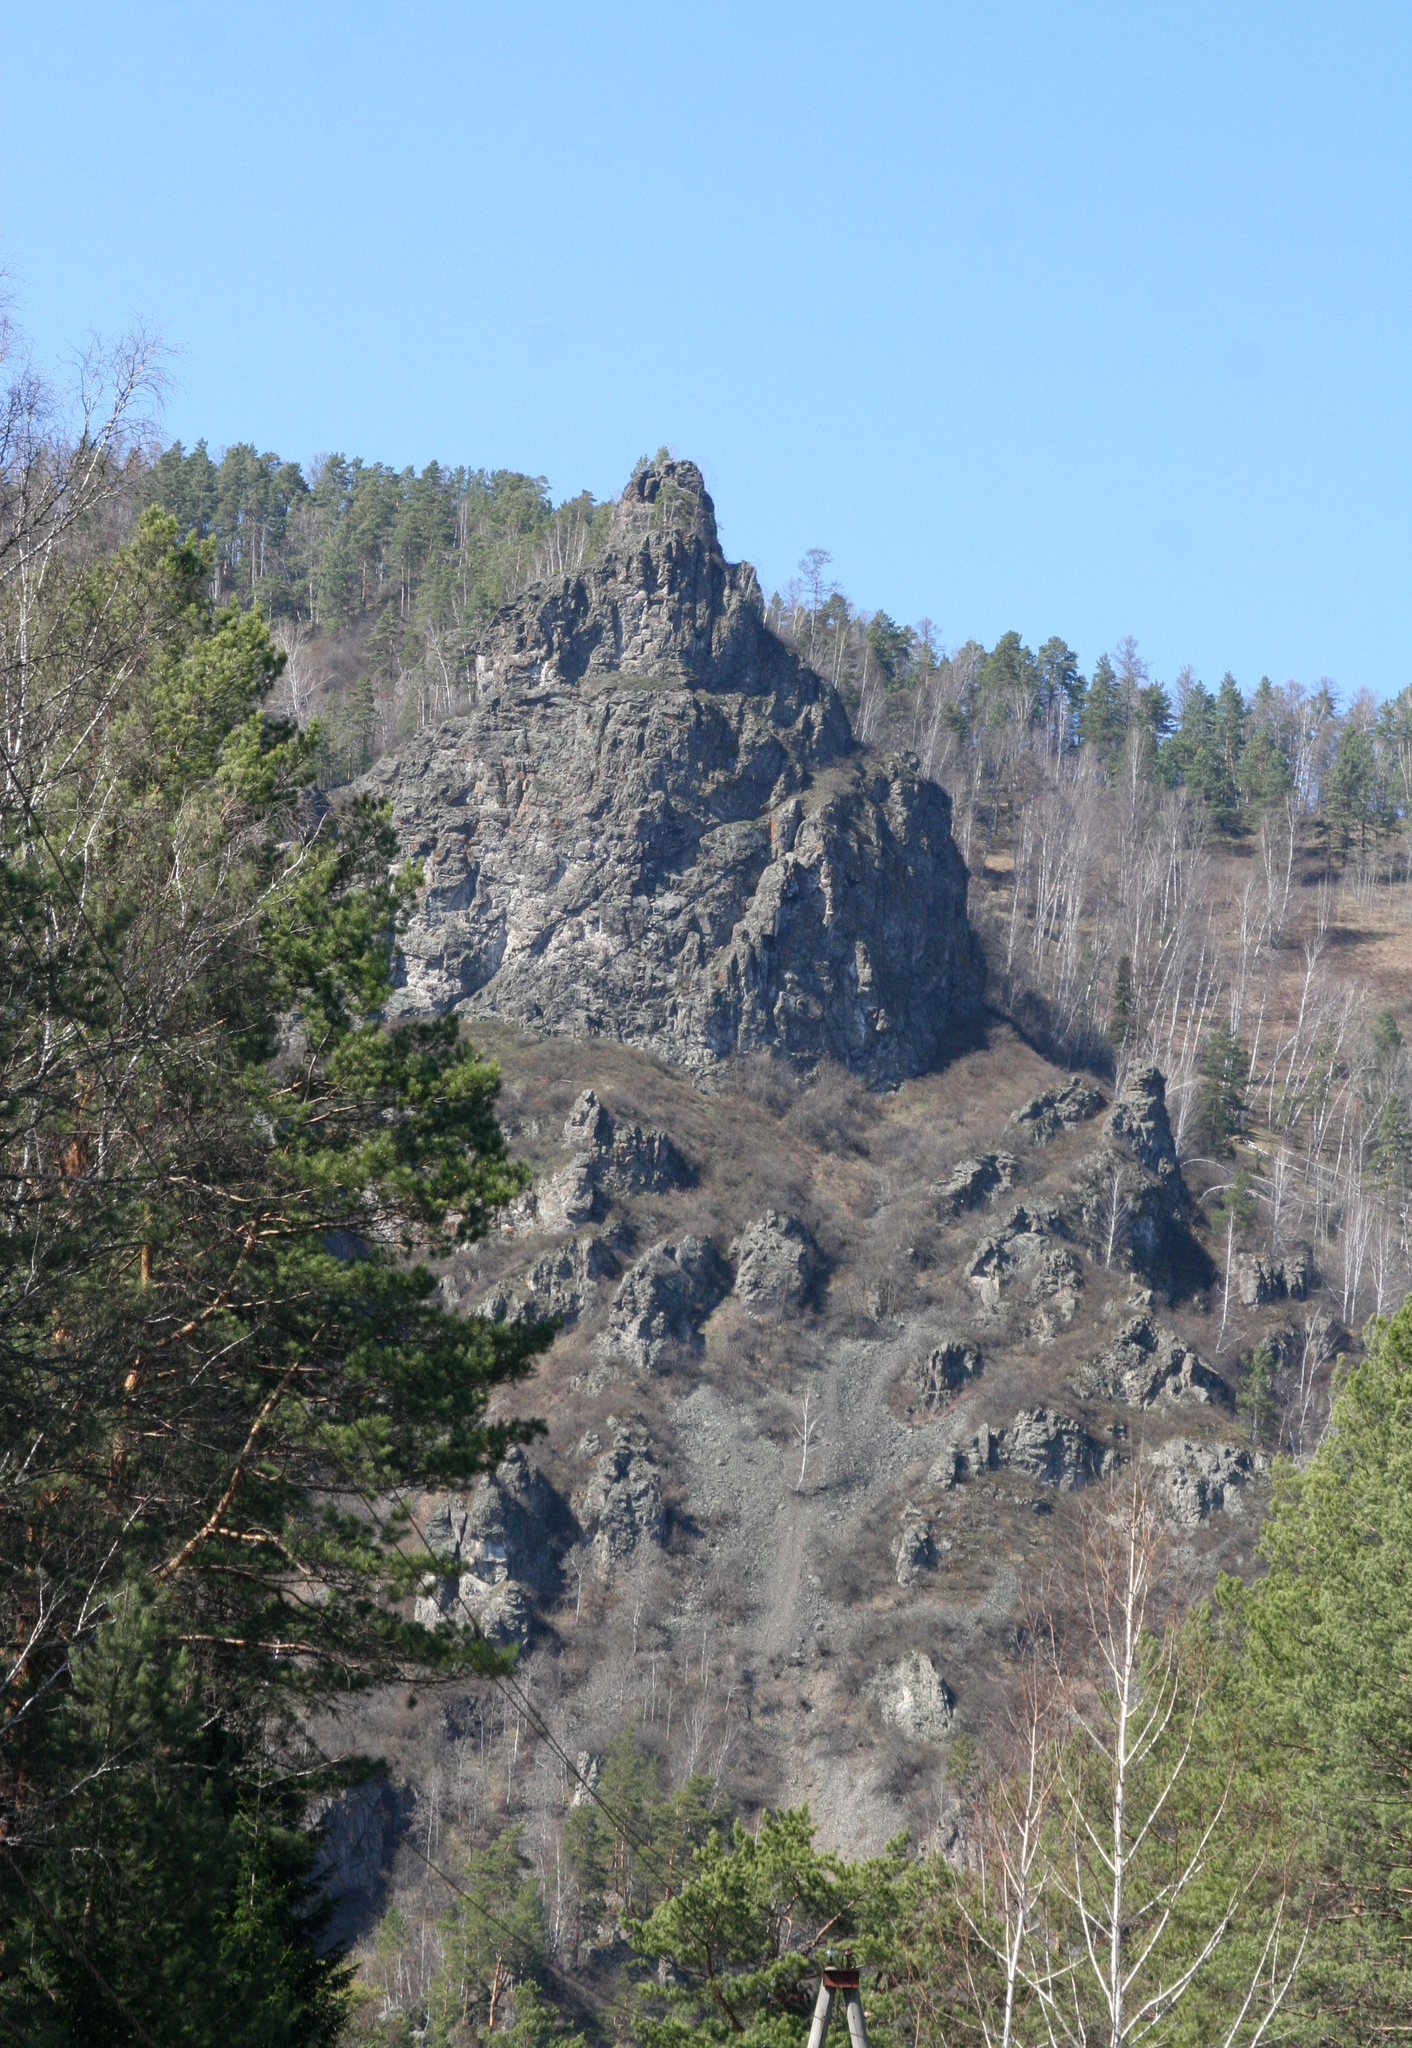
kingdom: Plantae
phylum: Tracheophyta
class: Pinopsida
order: Pinales
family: Pinaceae
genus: Pinus
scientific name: Pinus sylvestris
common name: Scots pine
